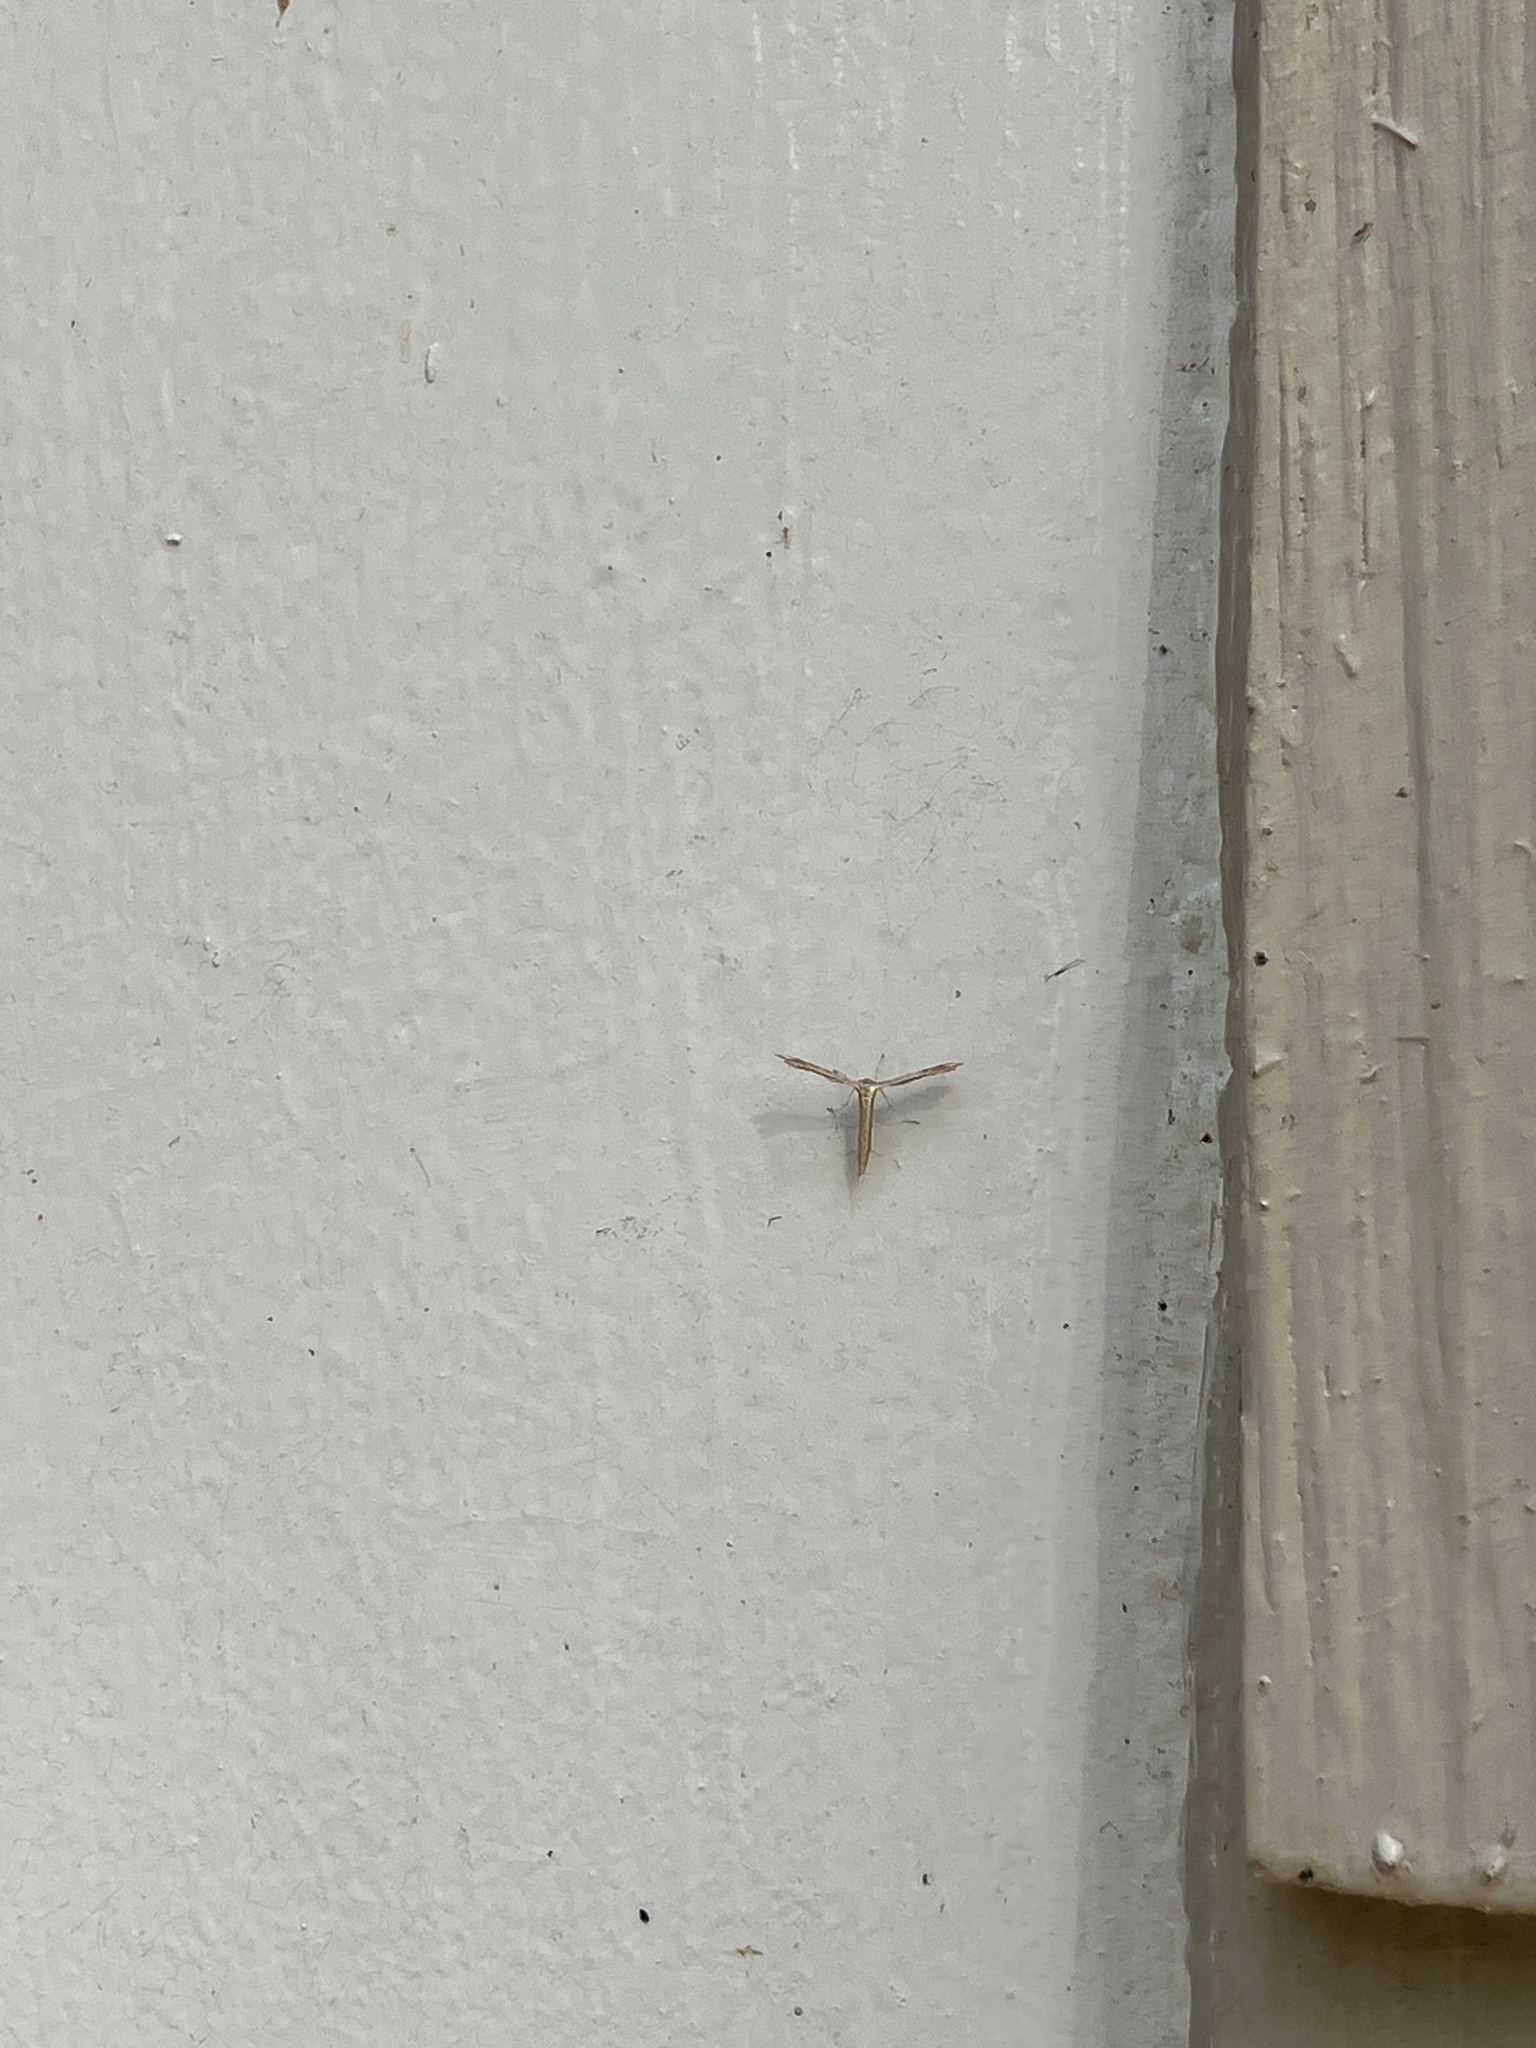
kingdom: Animalia
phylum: Arthropoda
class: Insecta
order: Lepidoptera
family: Pterophoridae
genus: Exelastis
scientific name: Exelastis pumilio
